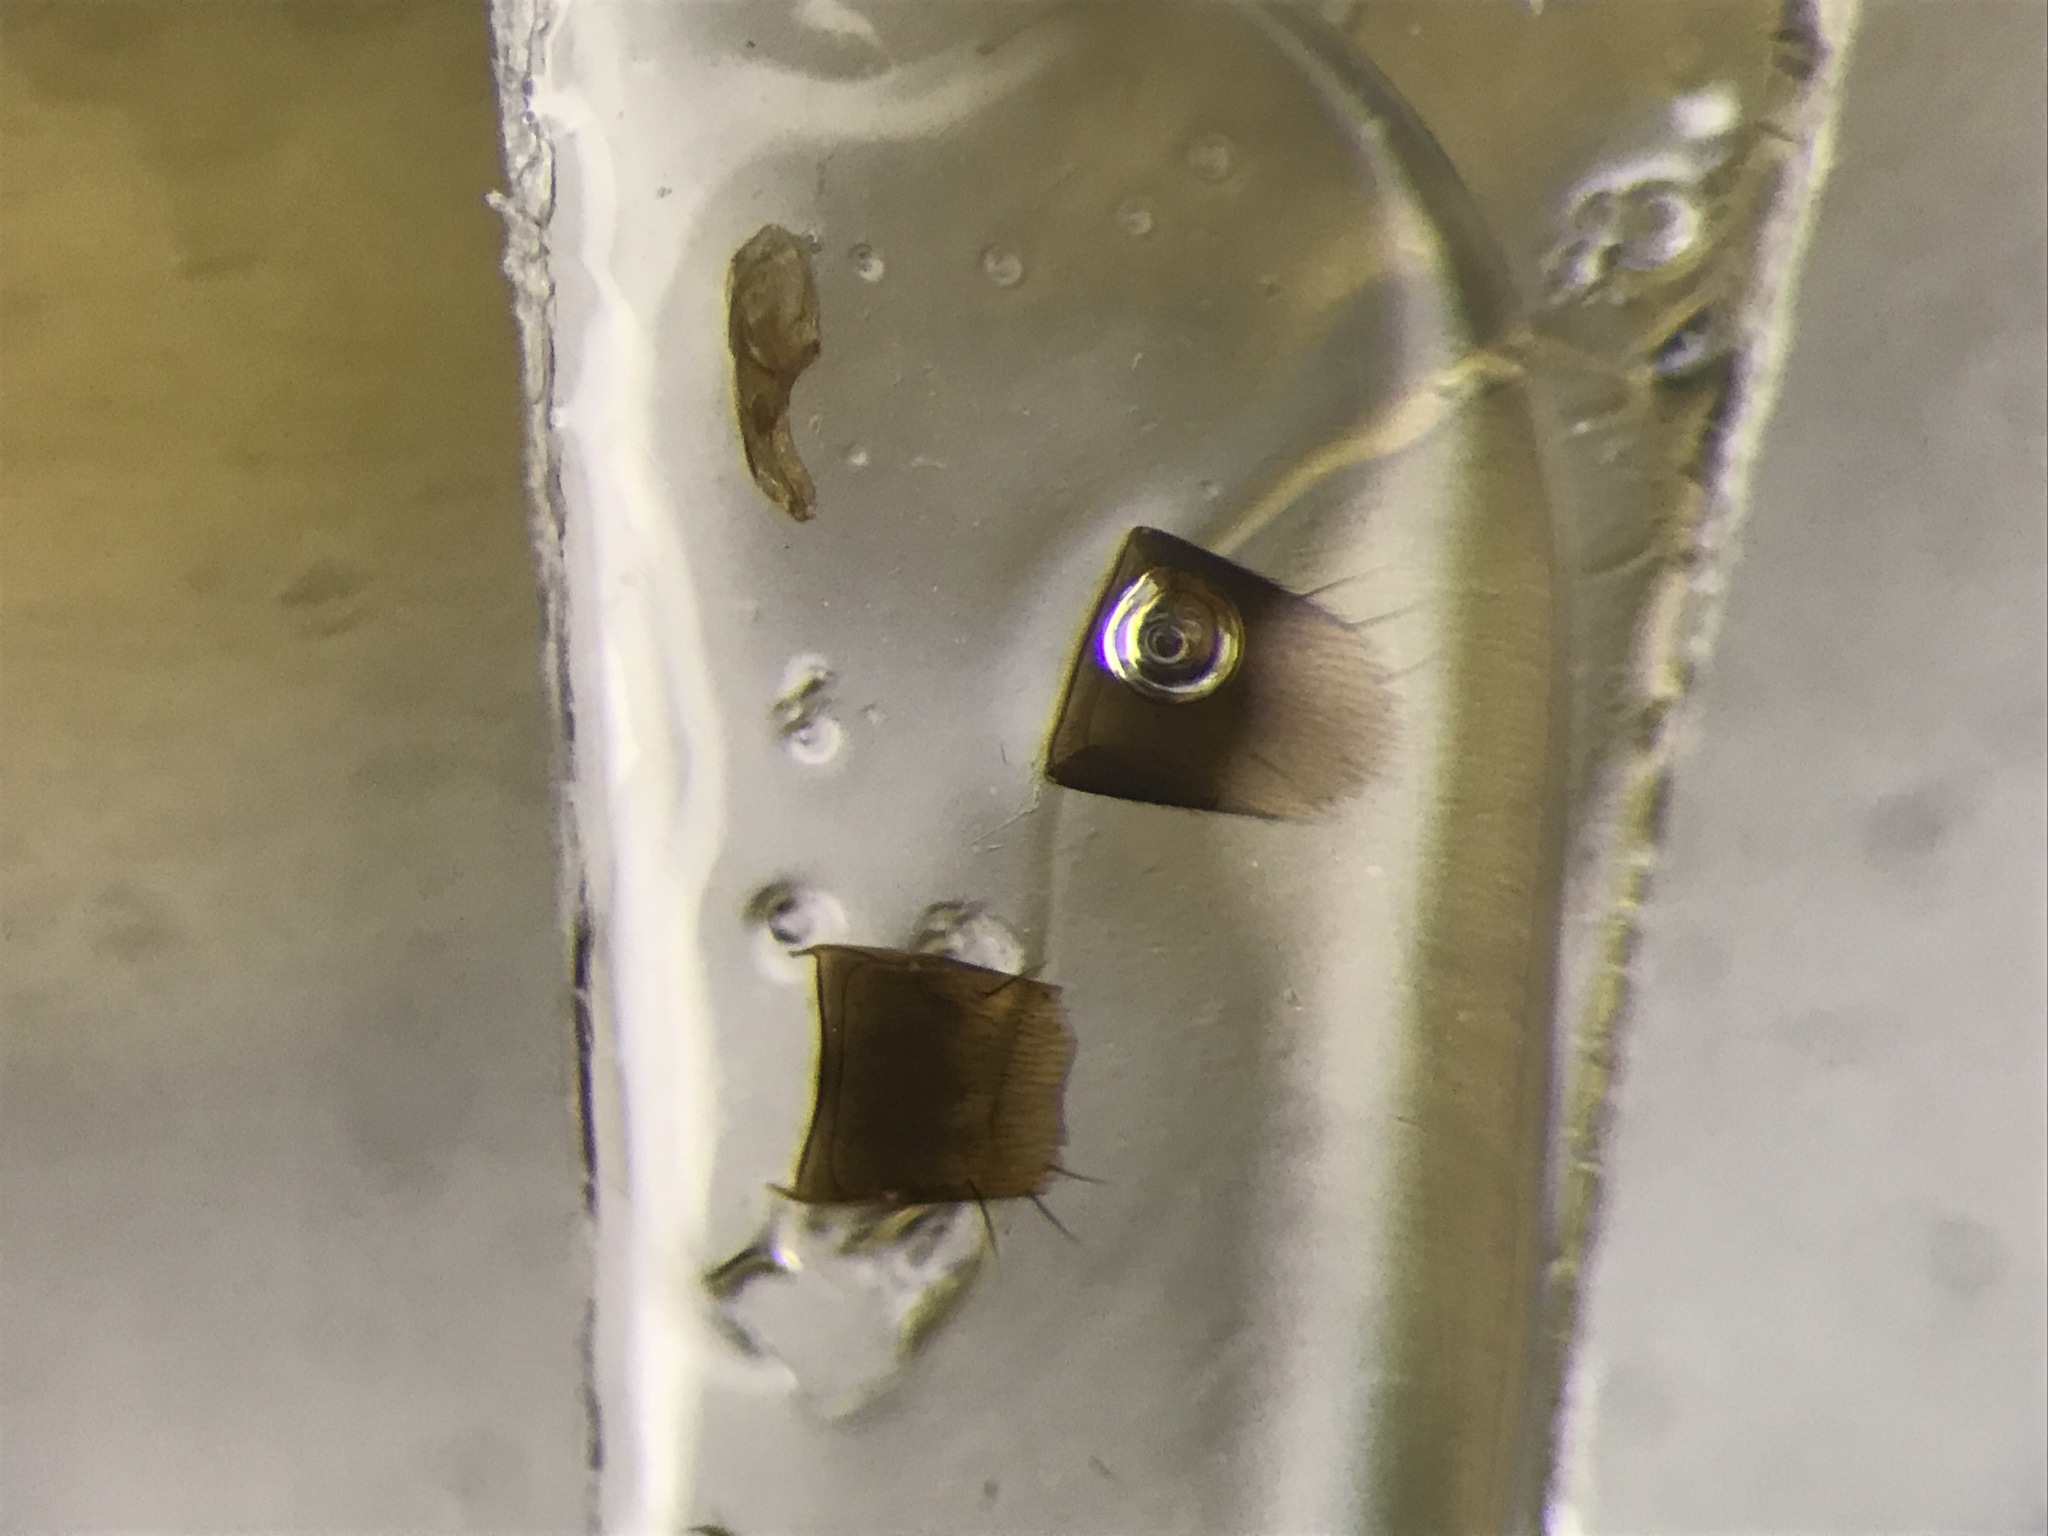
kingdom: Animalia
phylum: Arthropoda
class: Insecta
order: Coleoptera
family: Staphylinidae
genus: Nehemitropia
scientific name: Nehemitropia lividipennis
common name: Rove beetle
